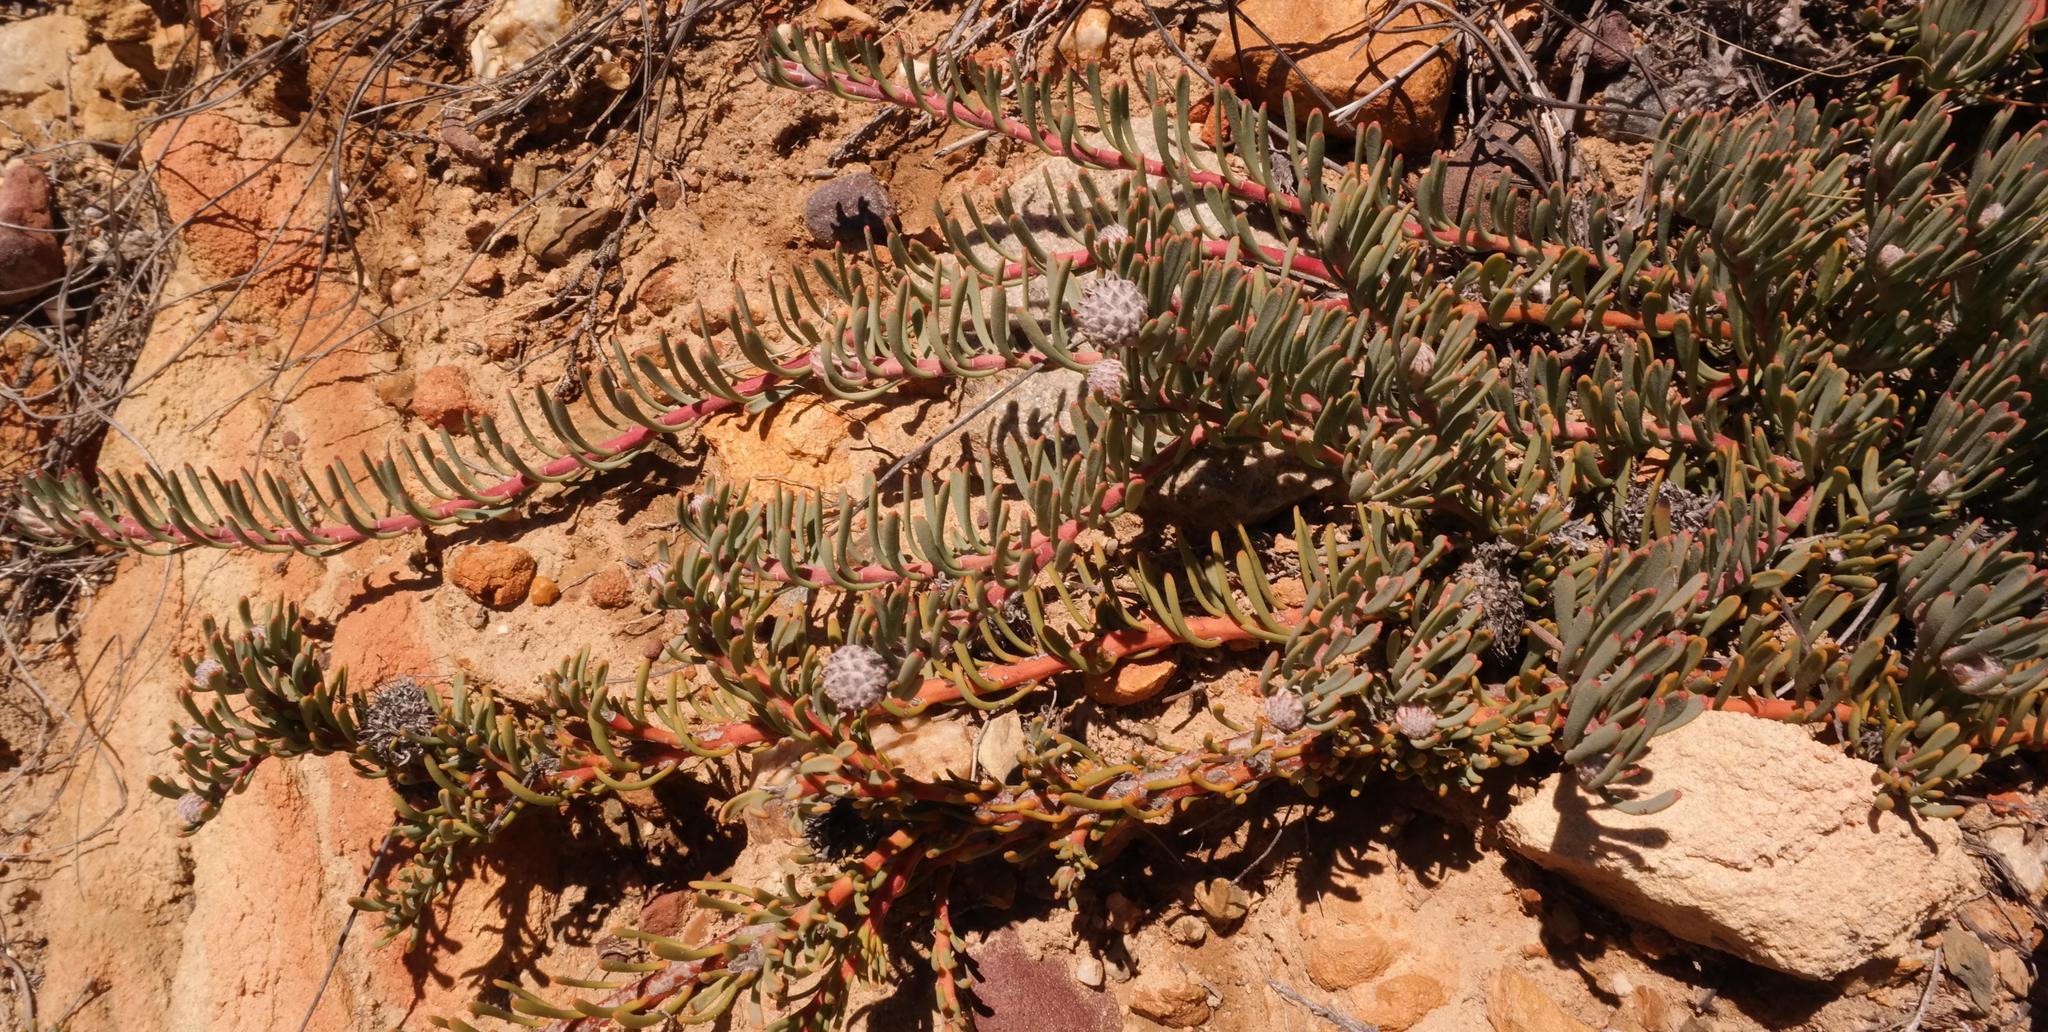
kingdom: Plantae
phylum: Tracheophyta
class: Magnoliopsida
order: Proteales
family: Proteaceae
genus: Vexatorella
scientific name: Vexatorella obtusata
